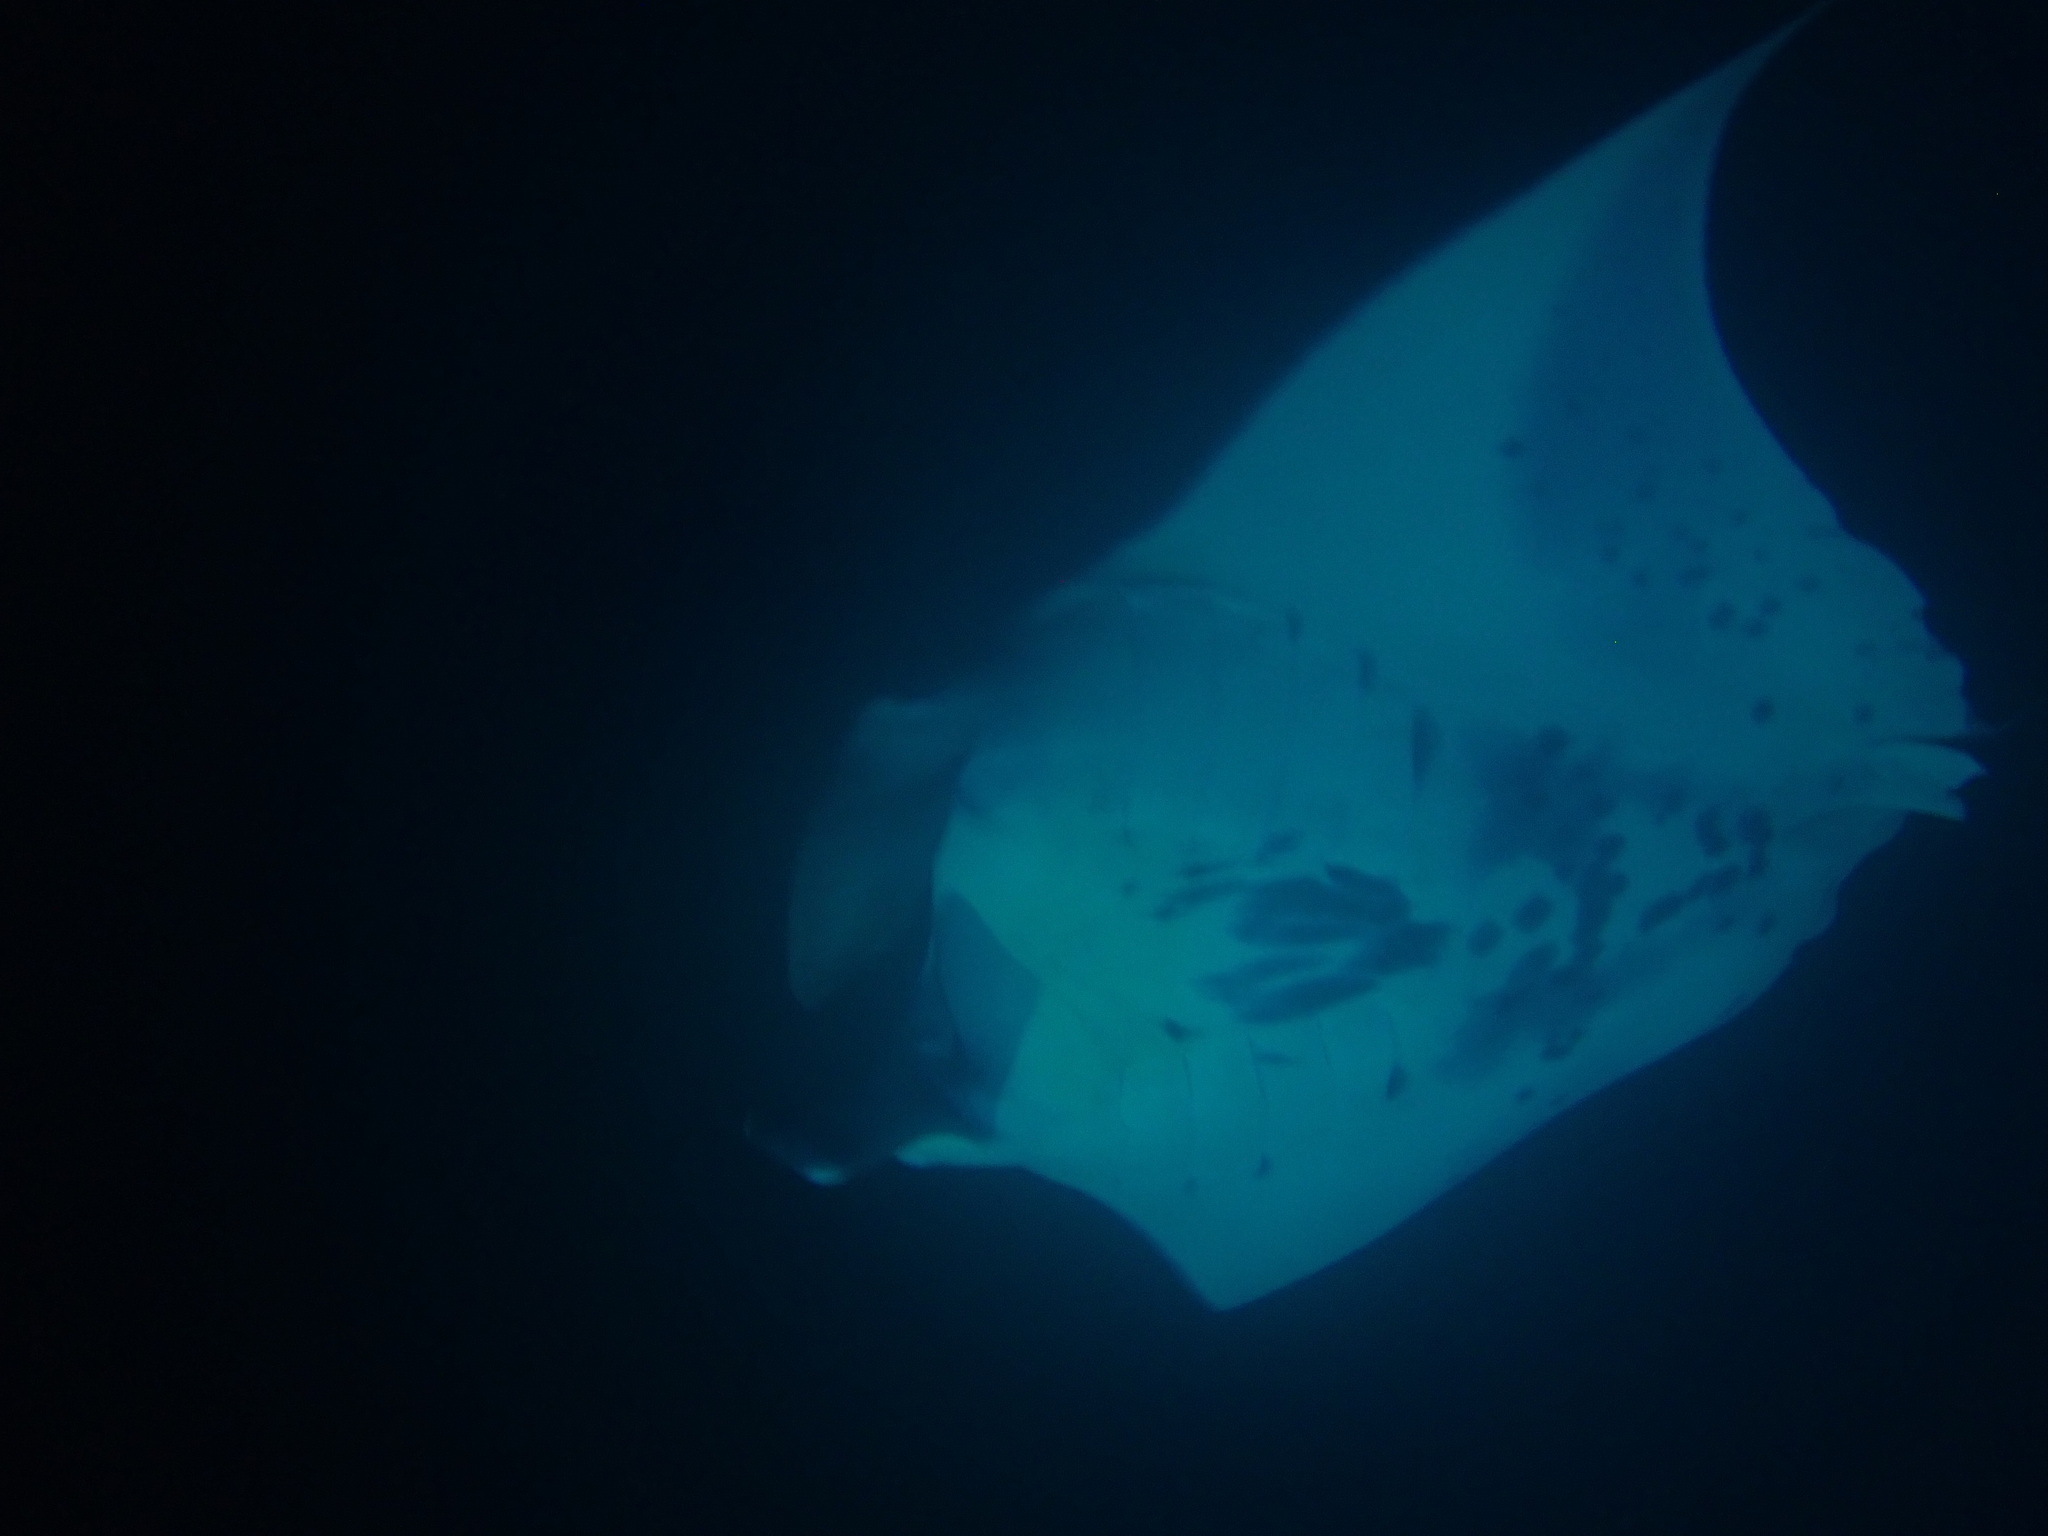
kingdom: Animalia
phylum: Chordata
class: Elasmobranchii
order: Myliobatiformes
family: Myliobatidae
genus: Mobula
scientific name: Mobula alfredi
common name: Reef manta ray
